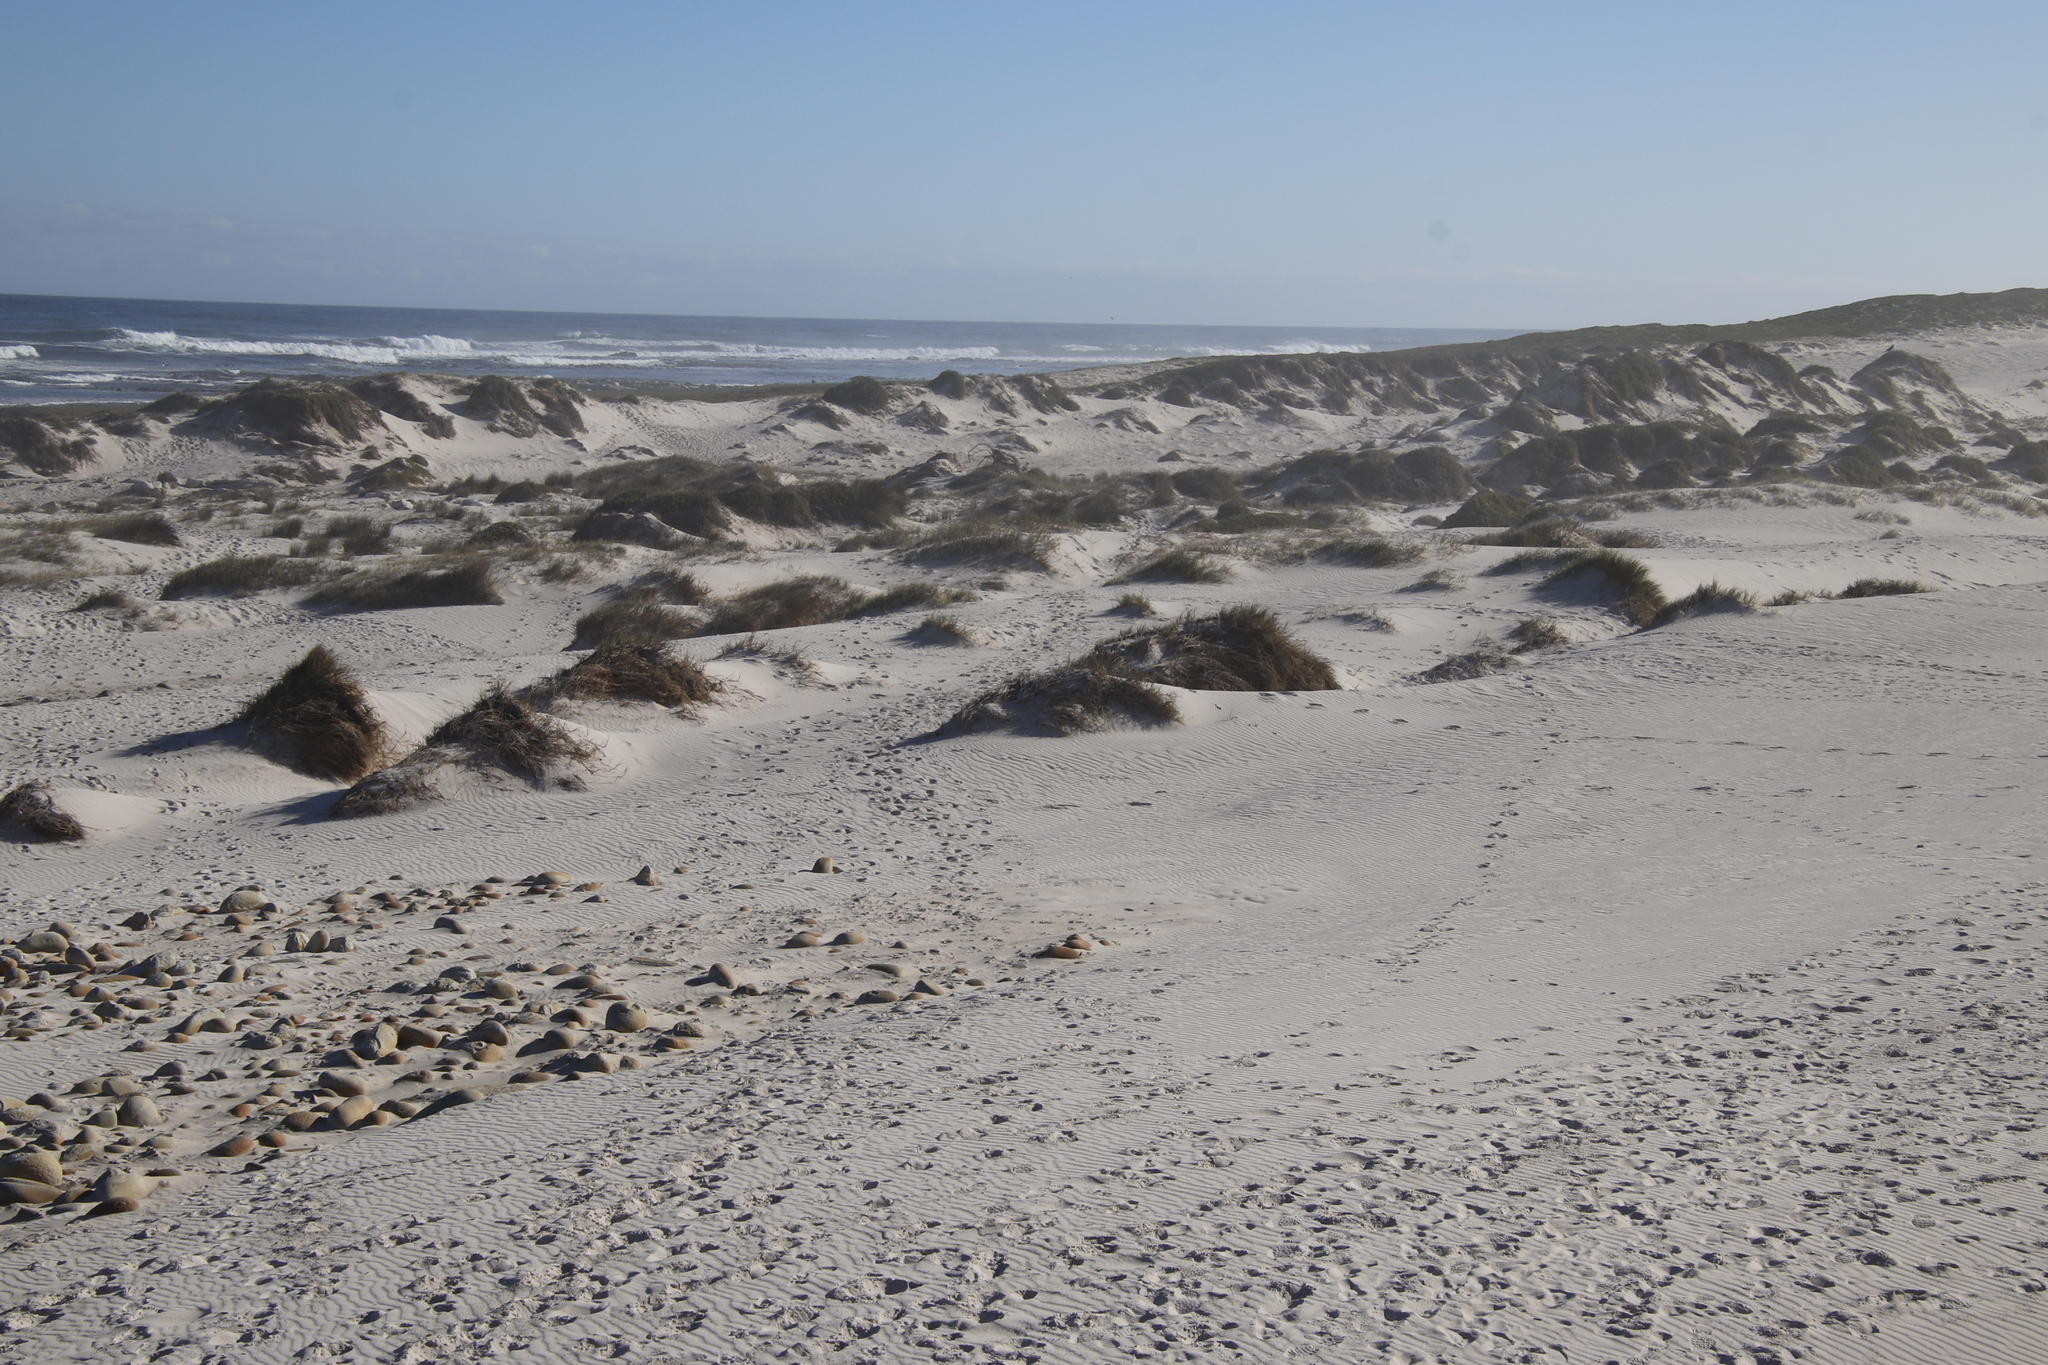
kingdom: Plantae
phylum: Tracheophyta
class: Liliopsida
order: Poales
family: Poaceae
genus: Thinopyrum
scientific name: Thinopyrum distichum
